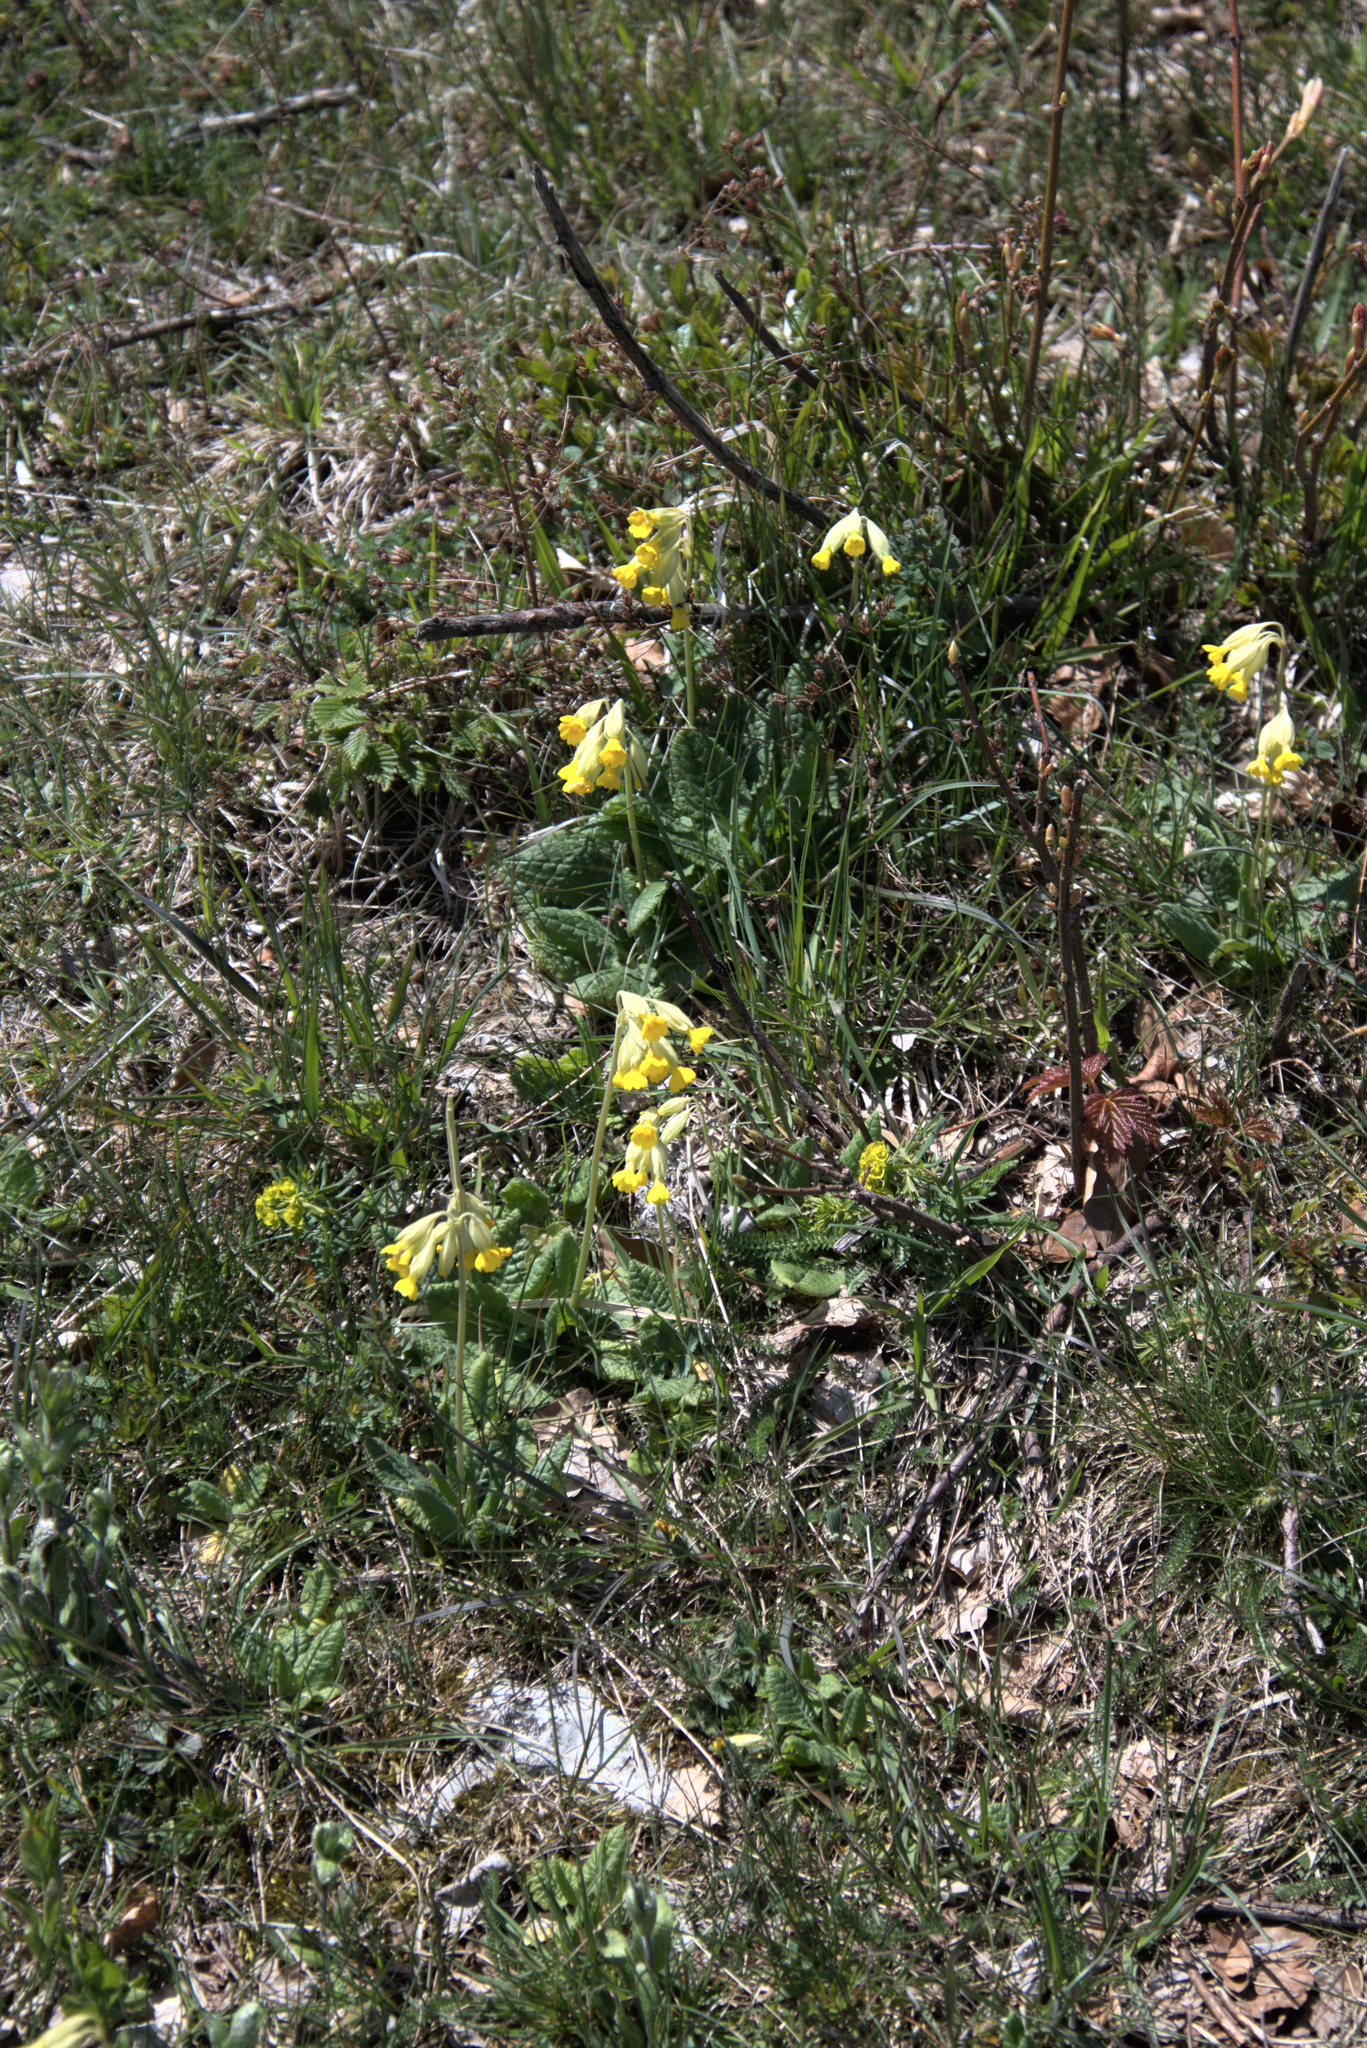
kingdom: Plantae
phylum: Tracheophyta
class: Magnoliopsida
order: Ericales
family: Primulaceae
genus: Primula
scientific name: Primula veris
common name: Cowslip
